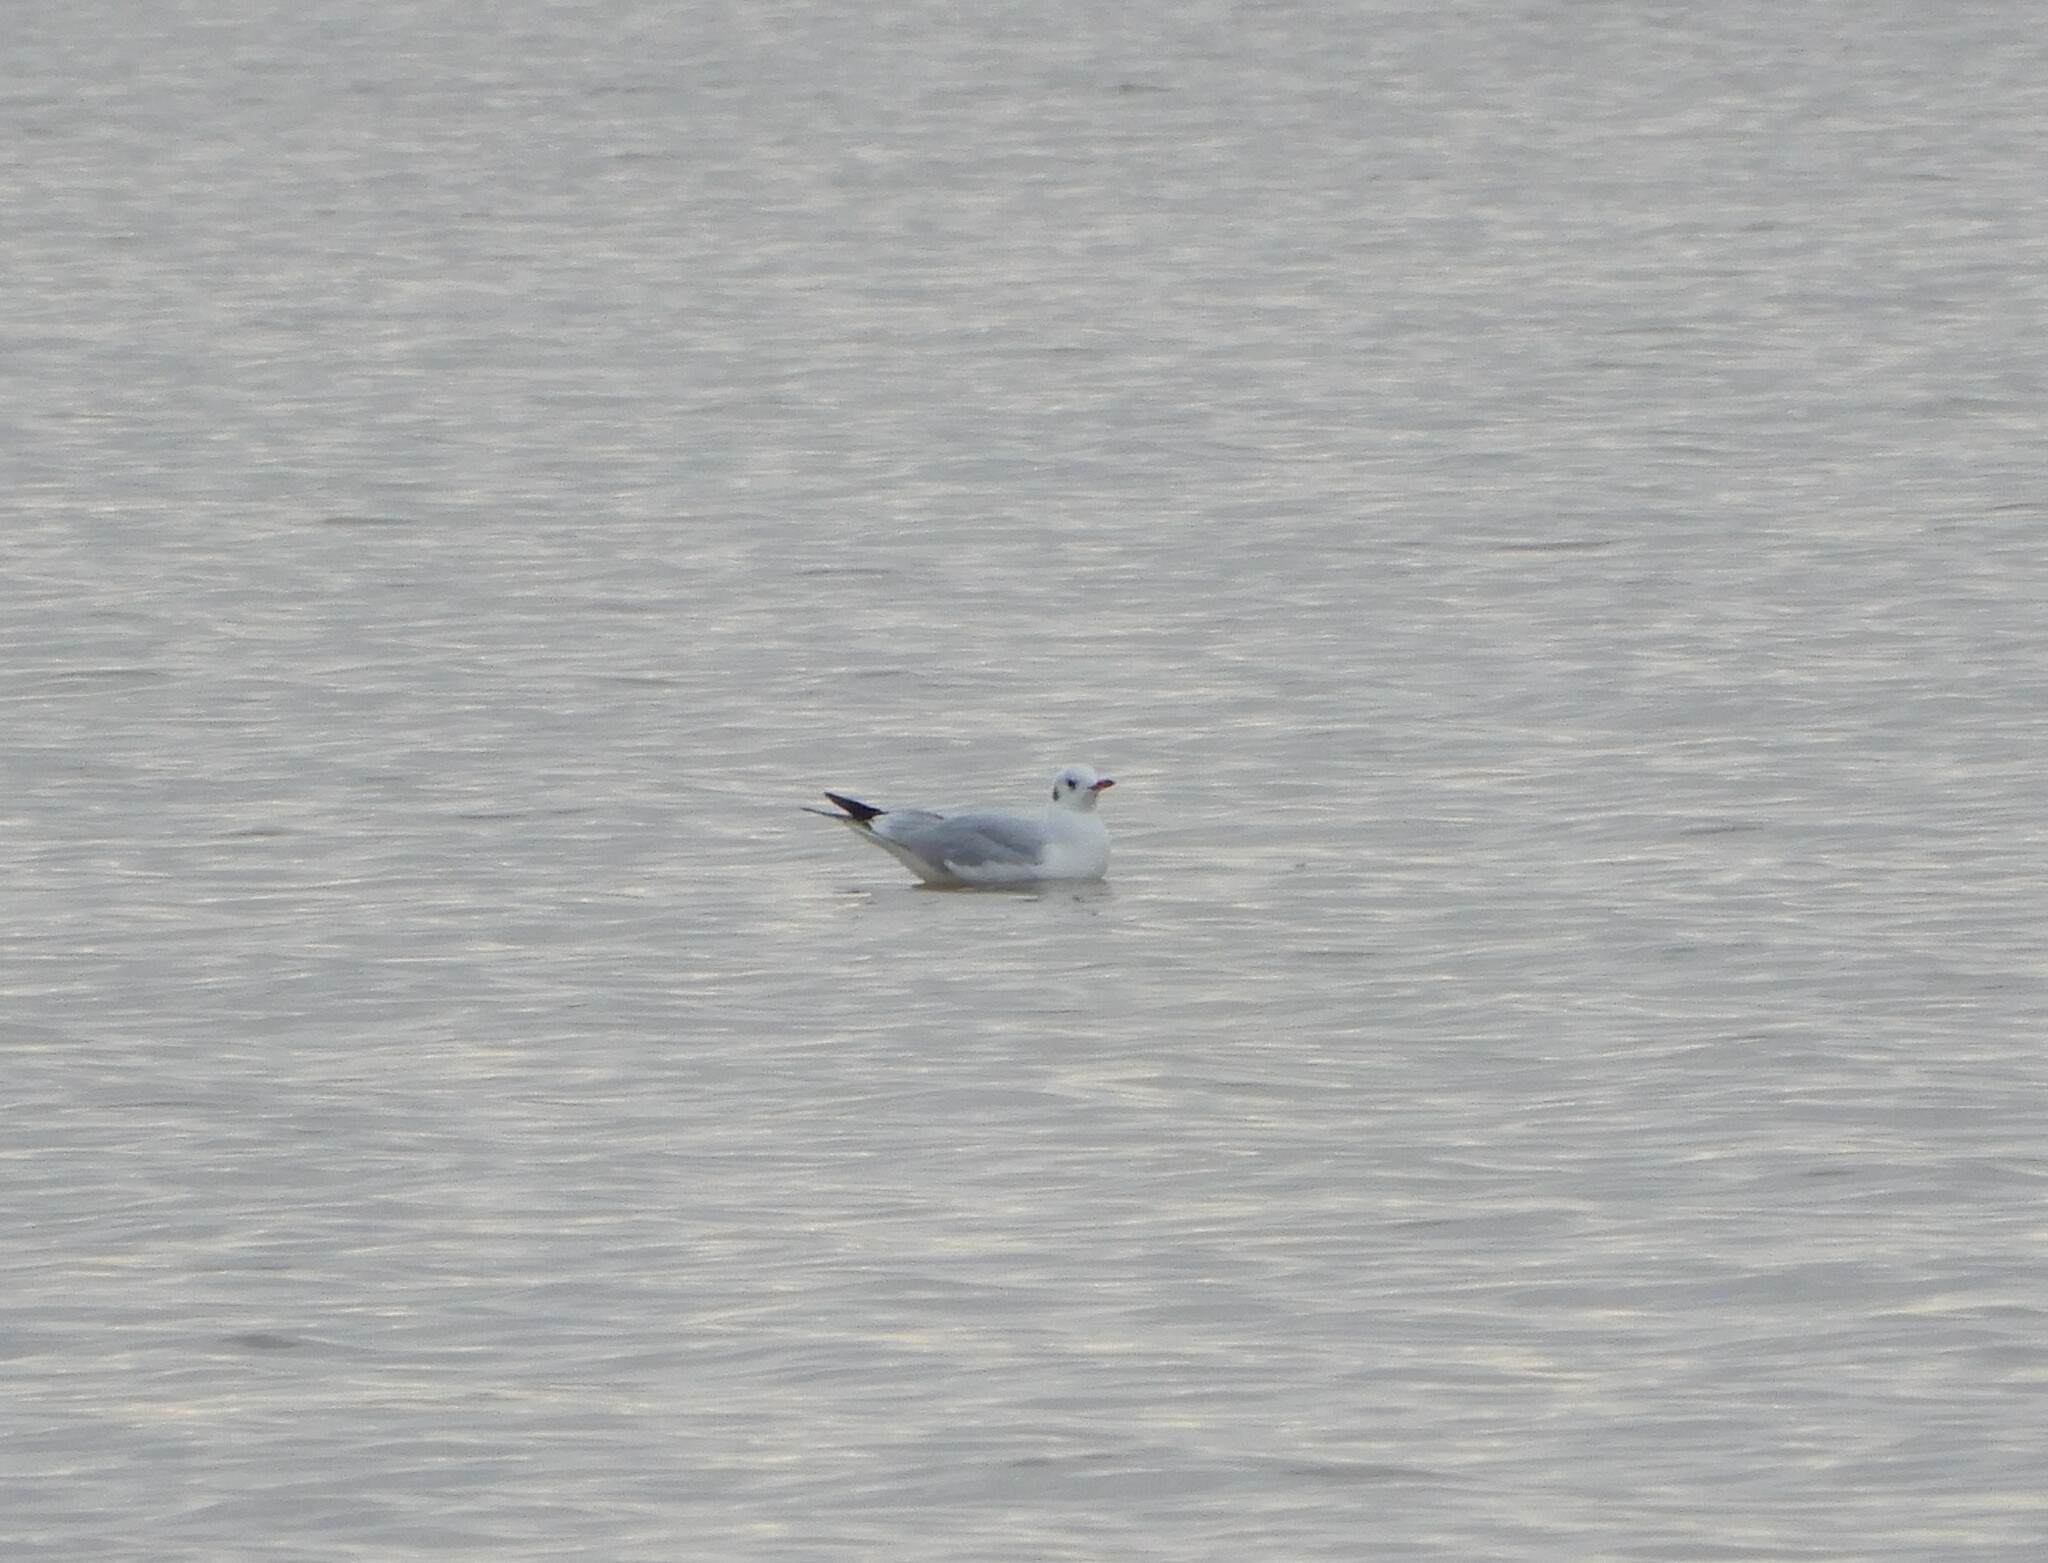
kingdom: Animalia
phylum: Chordata
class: Aves
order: Charadriiformes
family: Laridae
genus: Chroicocephalus
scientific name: Chroicocephalus ridibundus
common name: Black-headed gull
